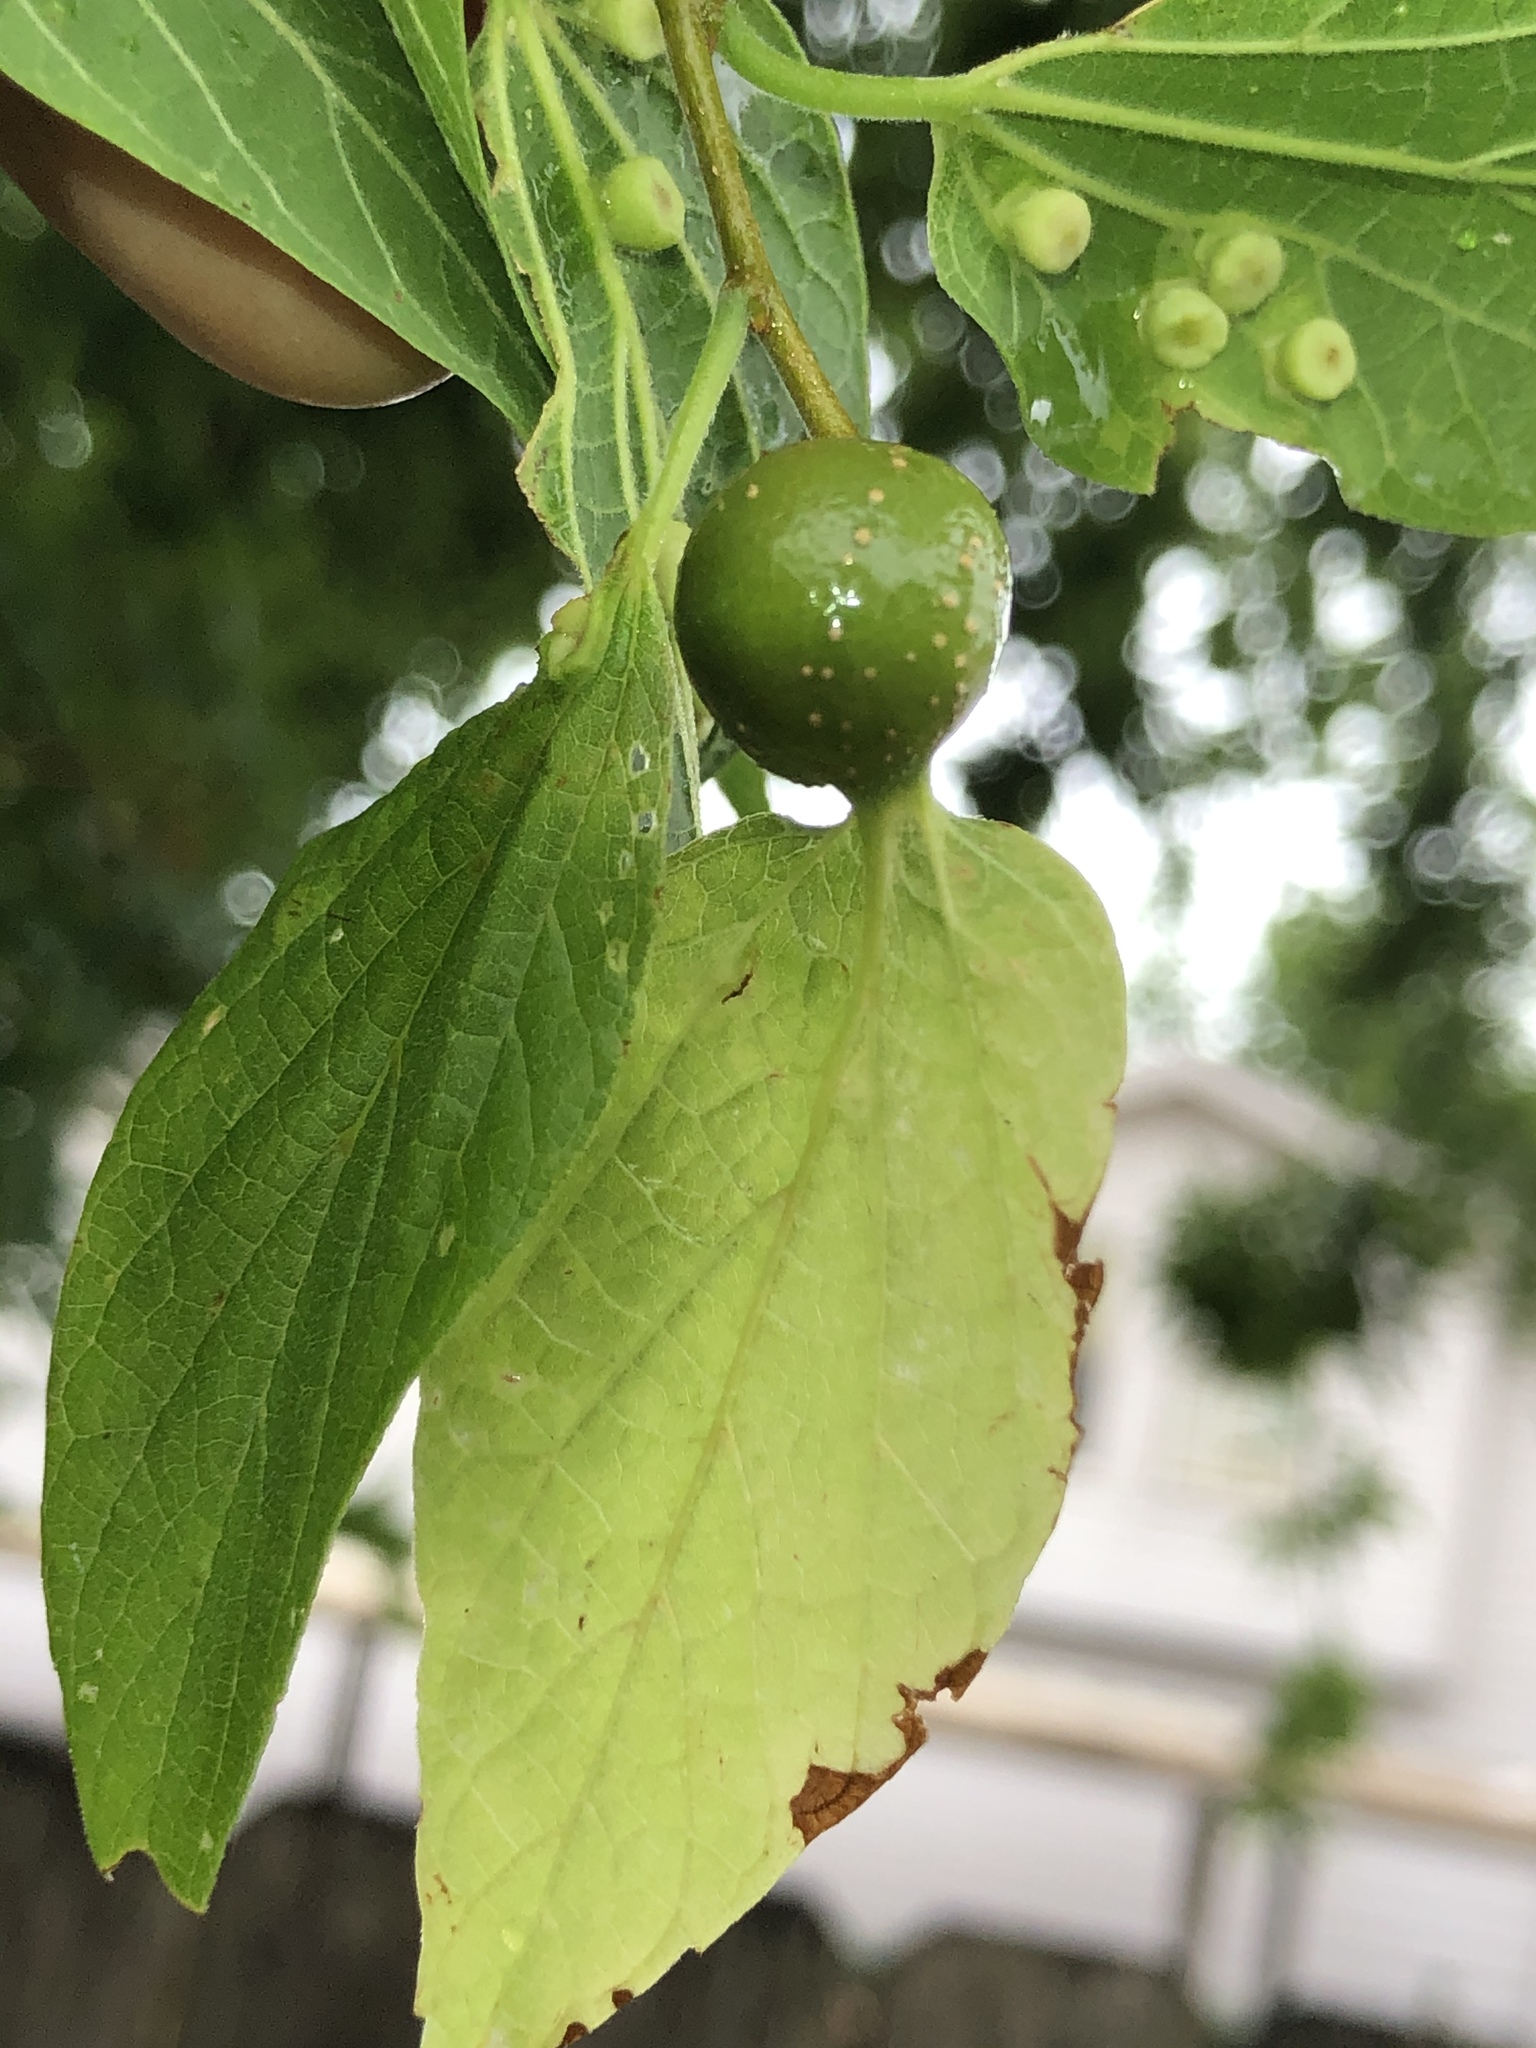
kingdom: Animalia
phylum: Arthropoda
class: Insecta
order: Hemiptera
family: Aphalaridae
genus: Pachypsylla
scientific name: Pachypsylla venusta
